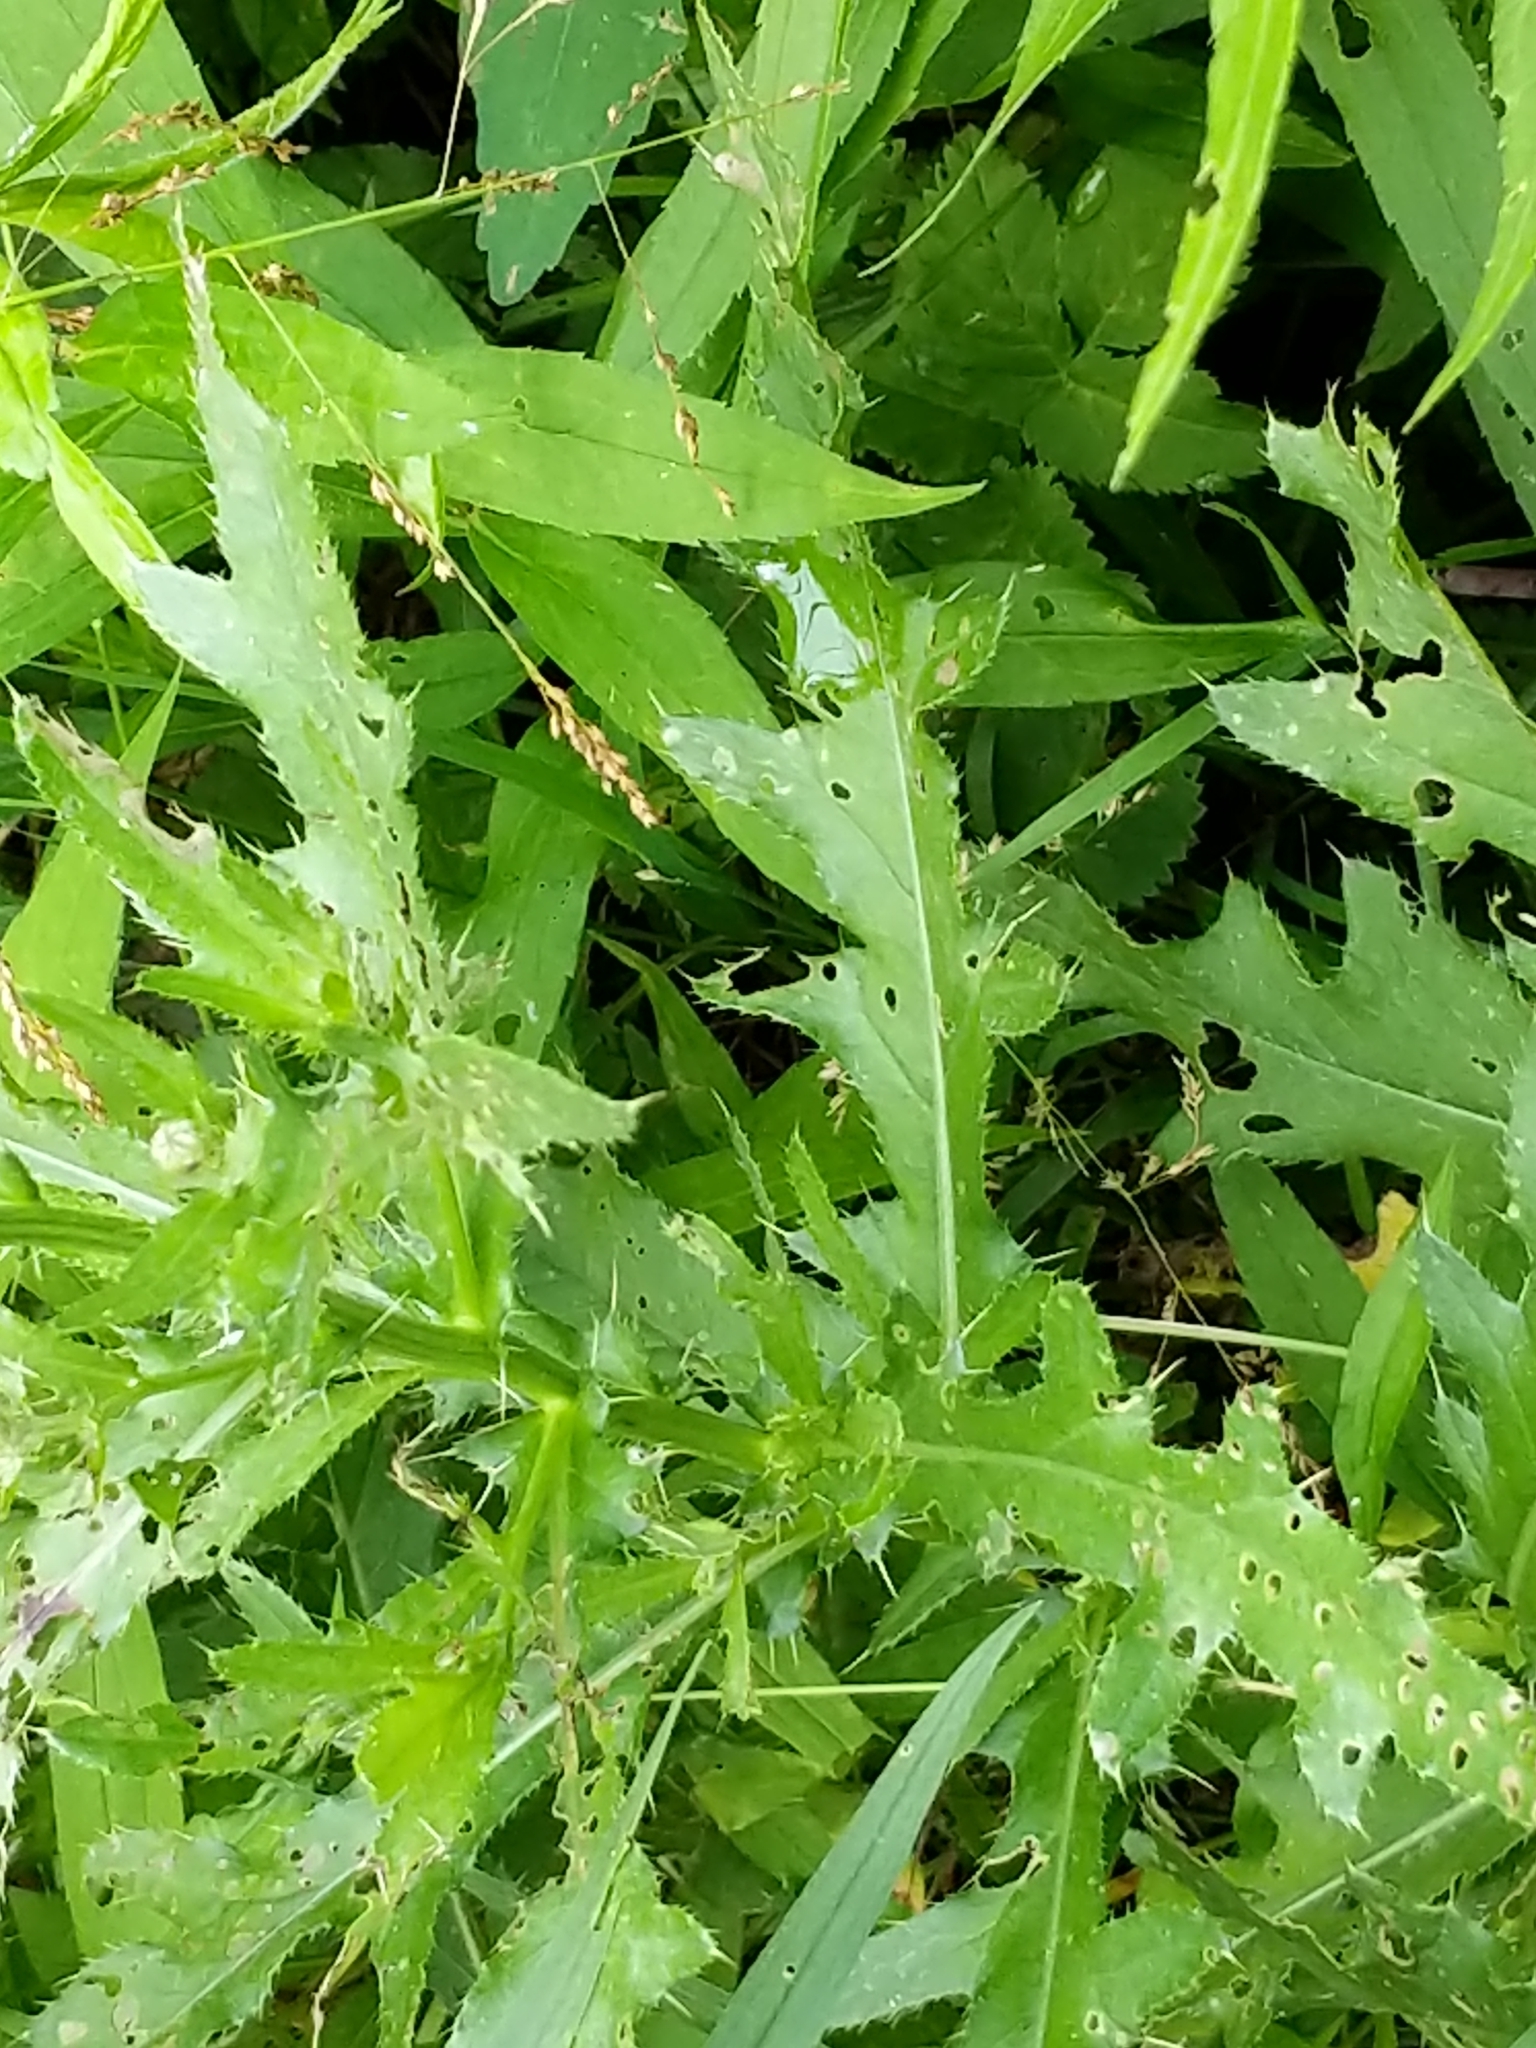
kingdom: Plantae
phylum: Tracheophyta
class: Magnoliopsida
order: Asterales
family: Asteraceae
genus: Cirsium
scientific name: Cirsium arvense
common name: Creeping thistle
